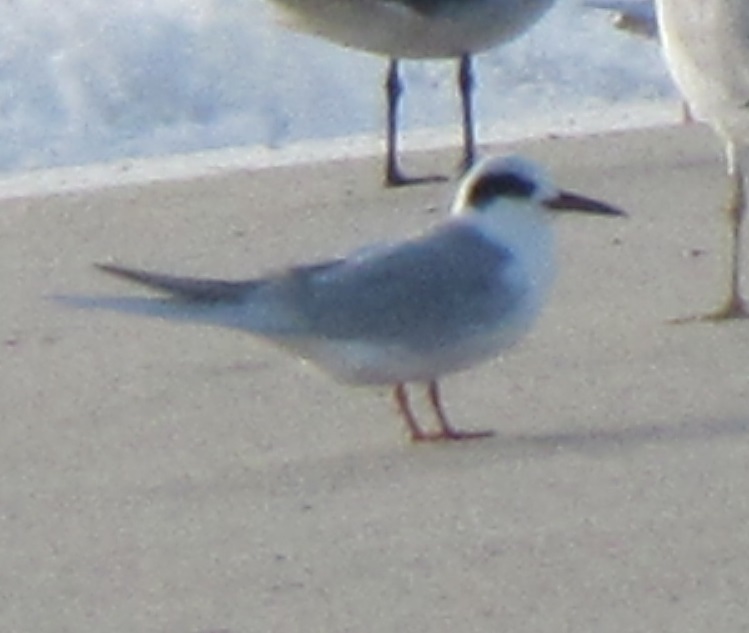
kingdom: Animalia
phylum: Chordata
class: Aves
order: Charadriiformes
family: Laridae
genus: Sterna
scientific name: Sterna forsteri
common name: Forster's tern
